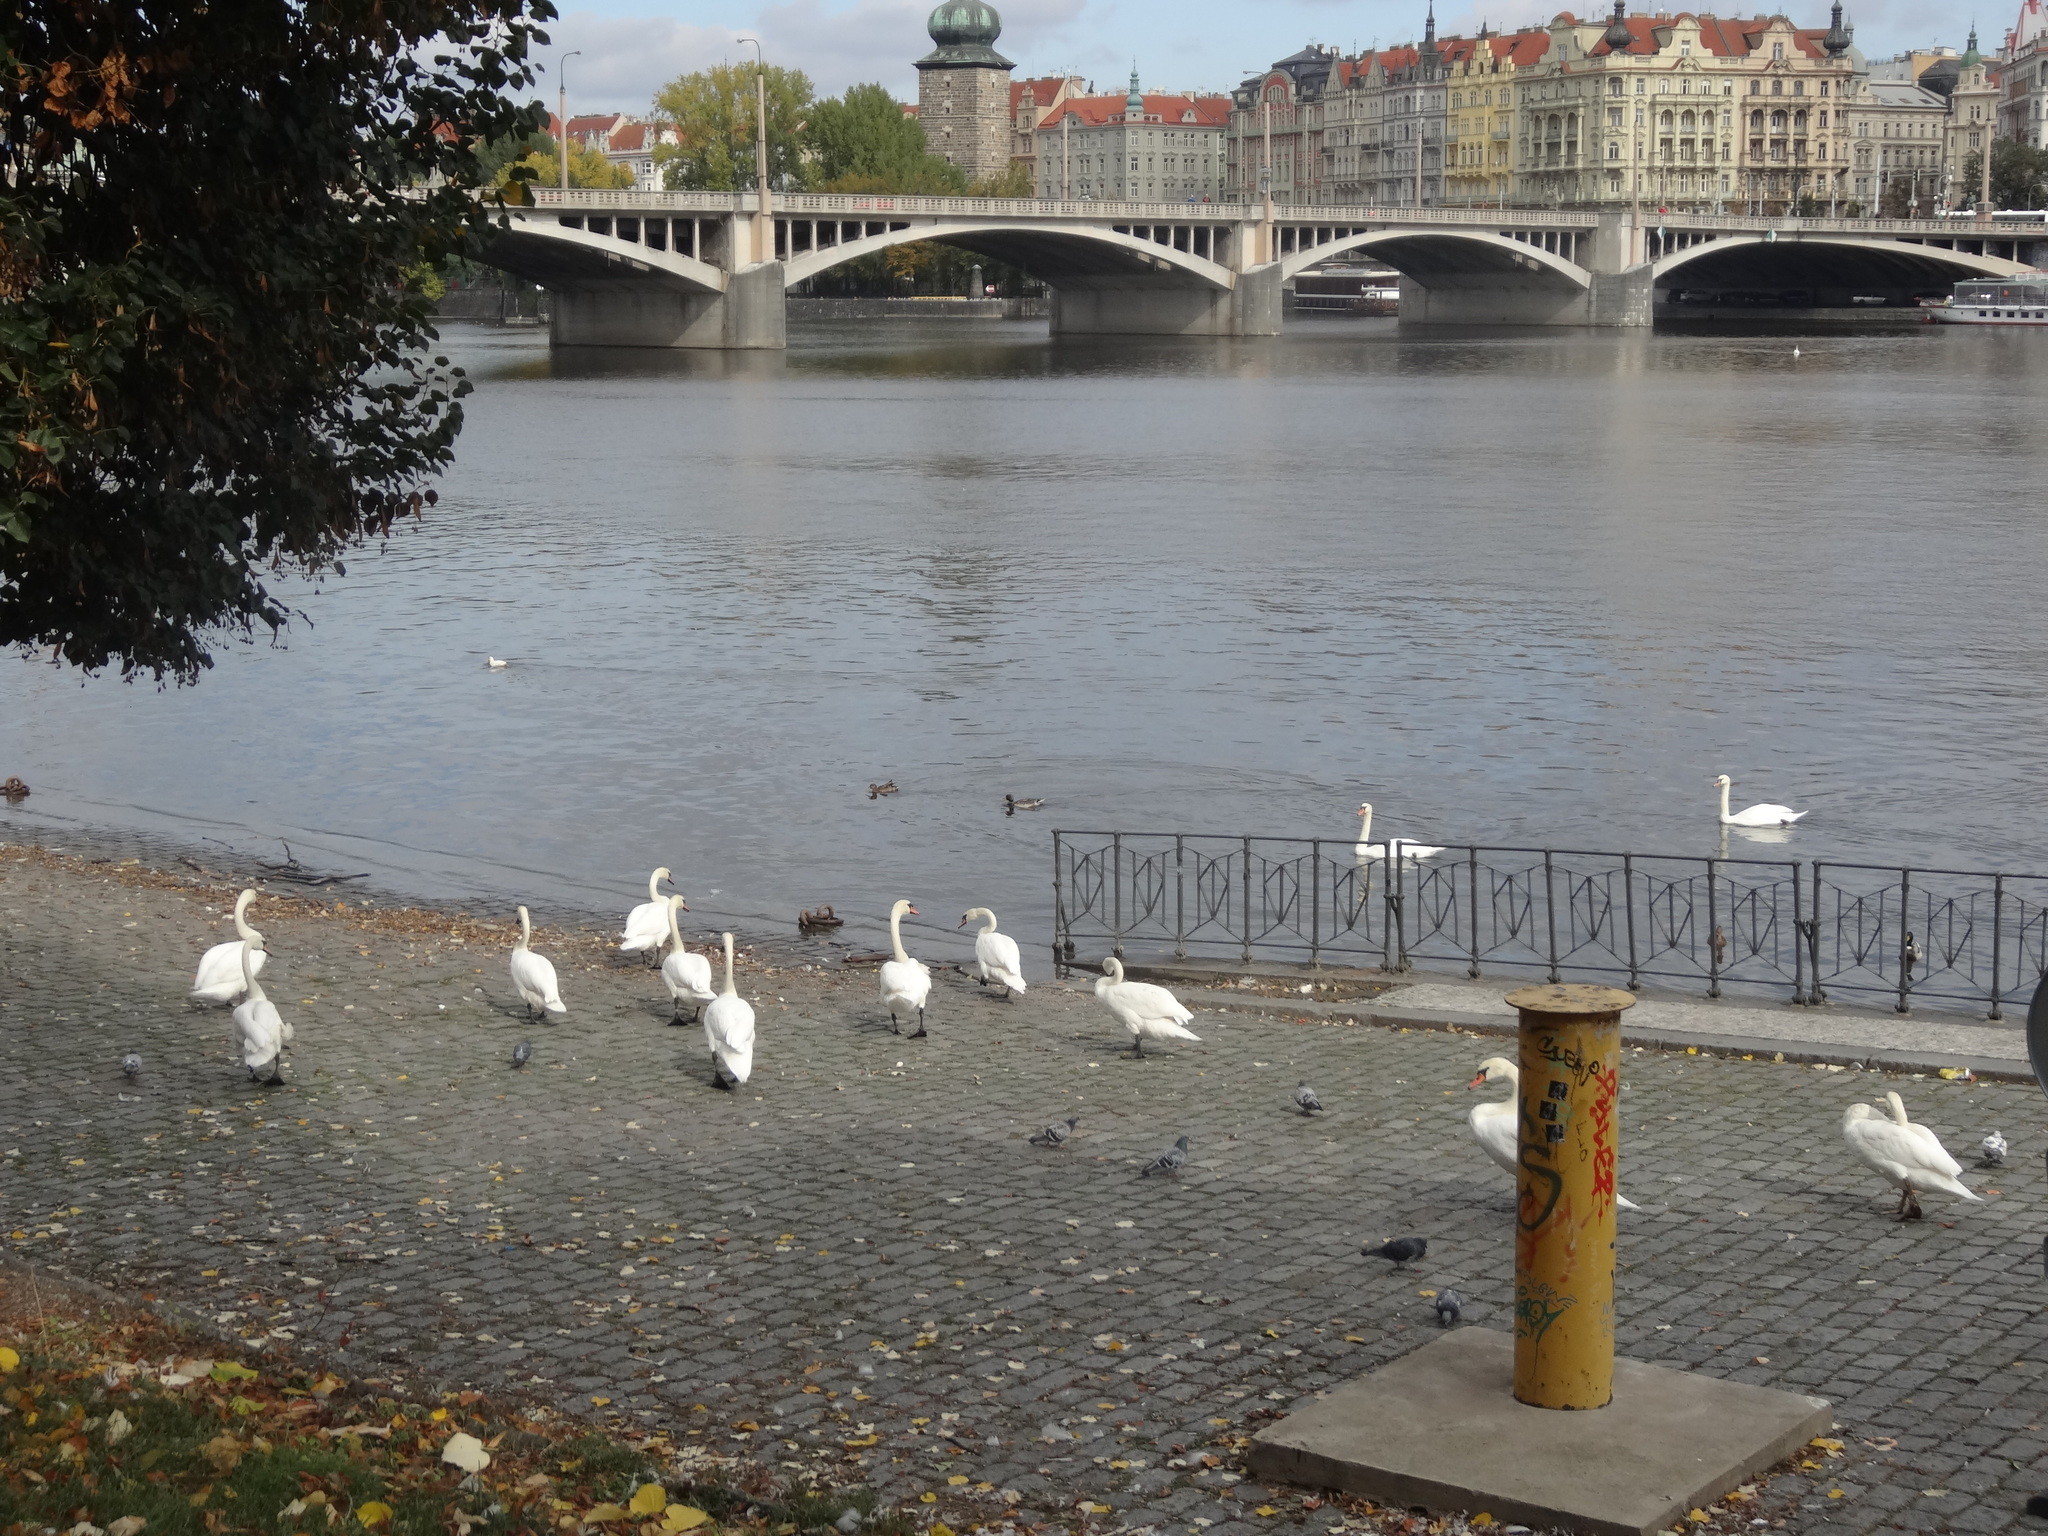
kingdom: Animalia
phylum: Chordata
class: Aves
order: Anseriformes
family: Anatidae
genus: Cygnus
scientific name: Cygnus olor
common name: Mute swan
